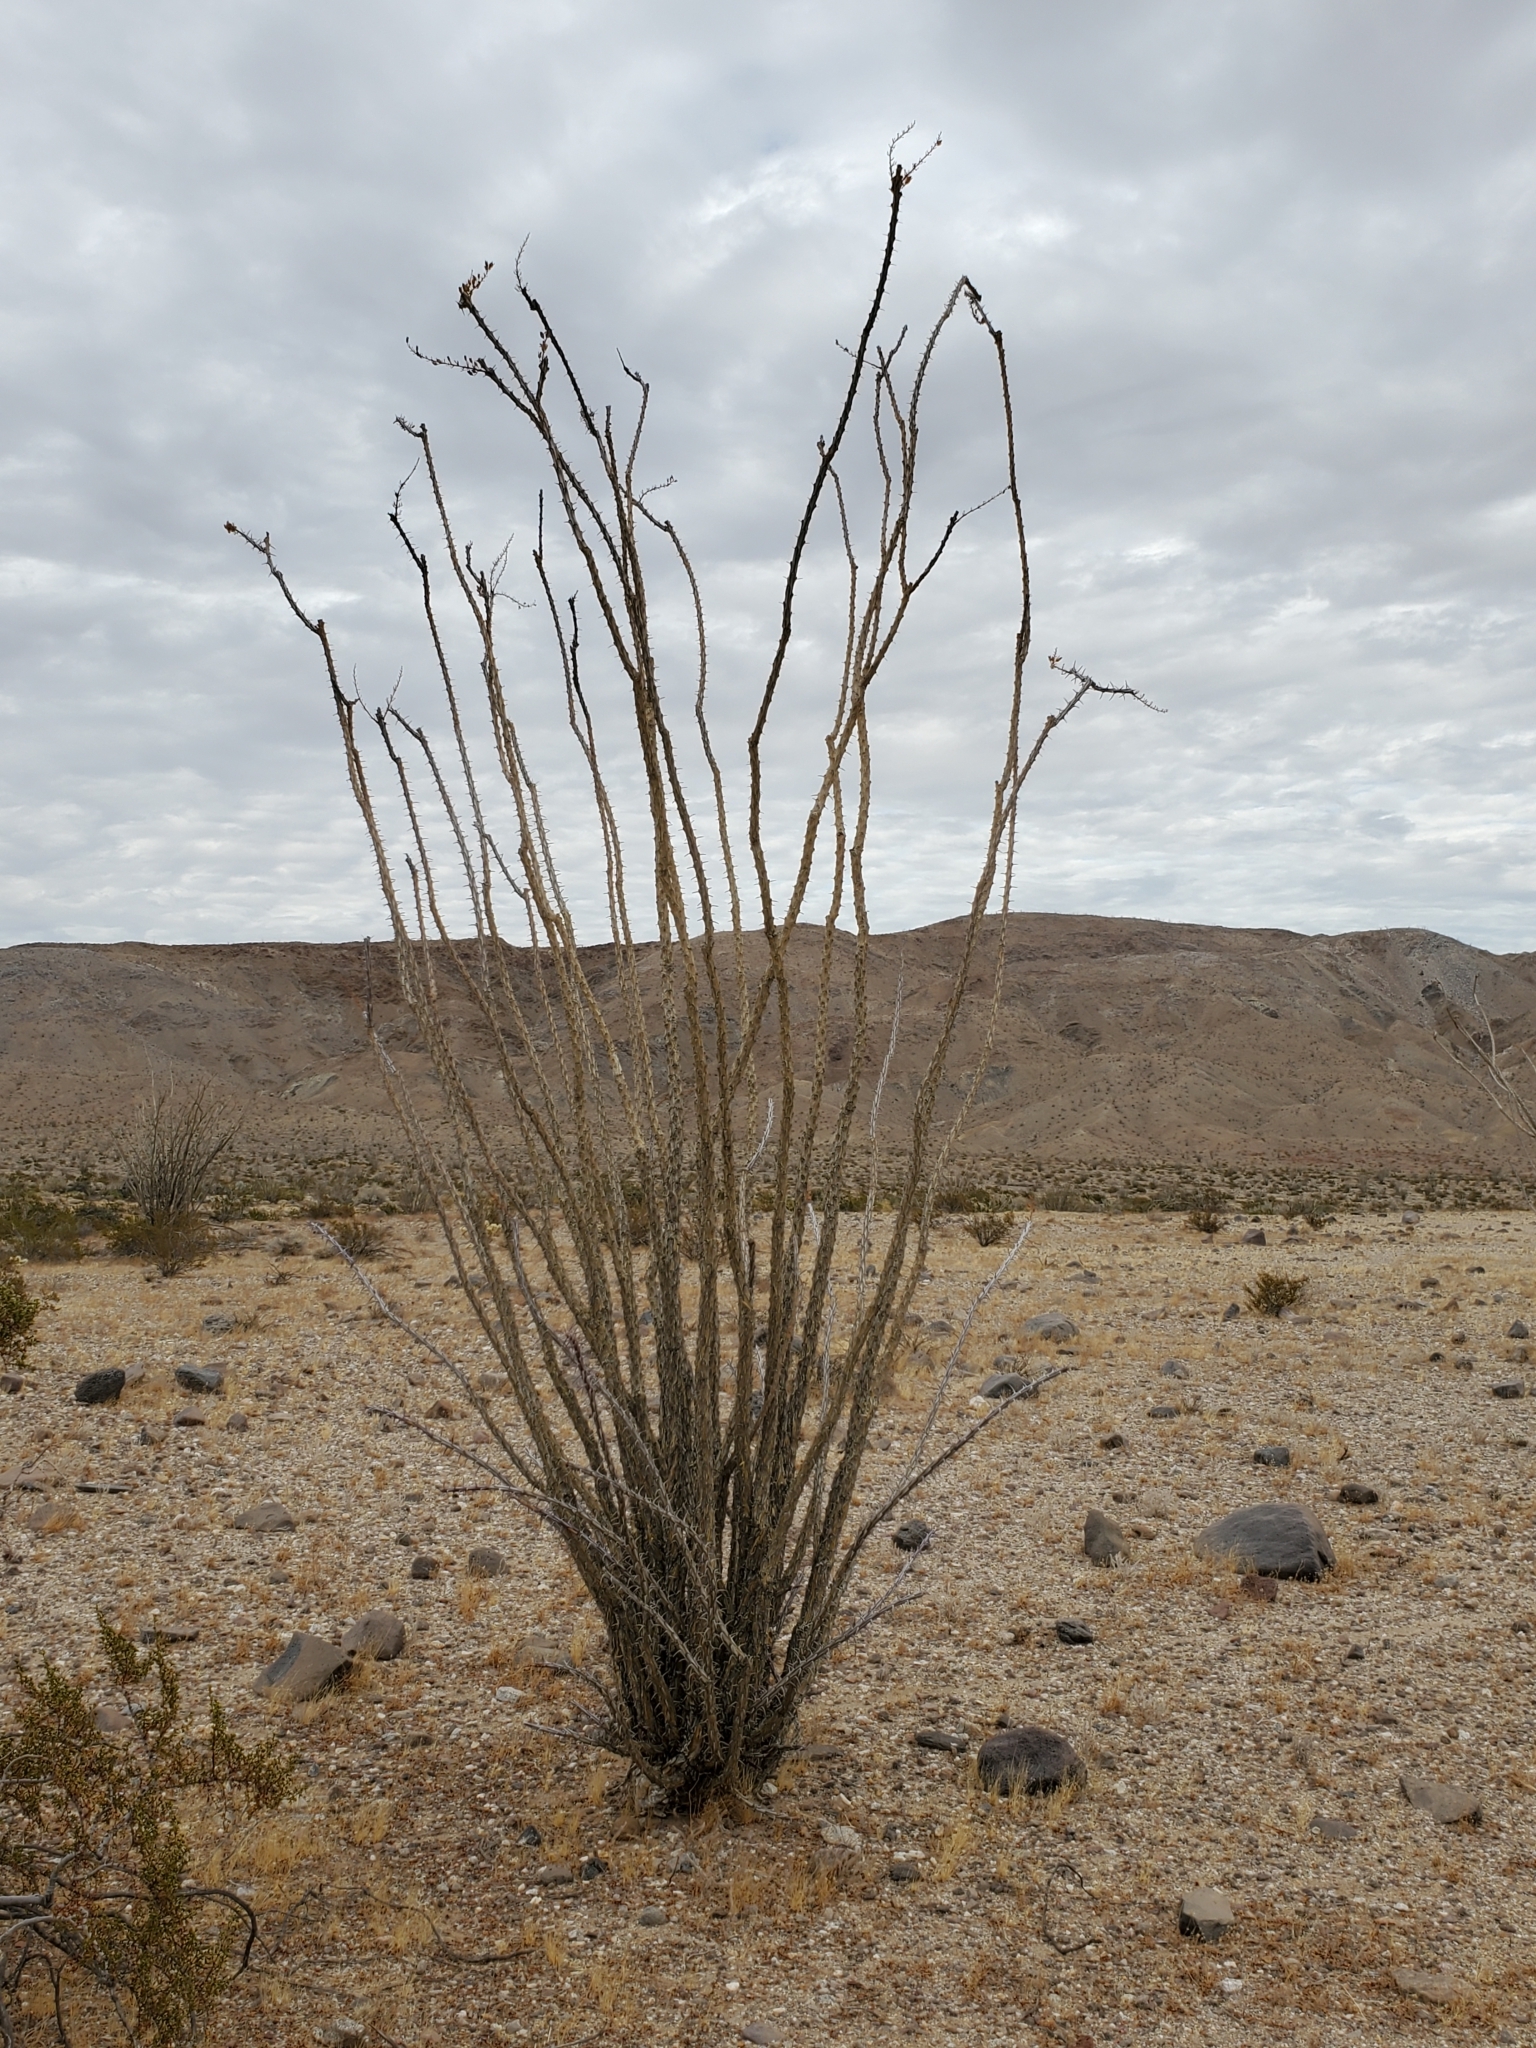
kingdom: Plantae
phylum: Tracheophyta
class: Magnoliopsida
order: Ericales
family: Fouquieriaceae
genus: Fouquieria
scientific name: Fouquieria splendens
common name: Vine-cactus
